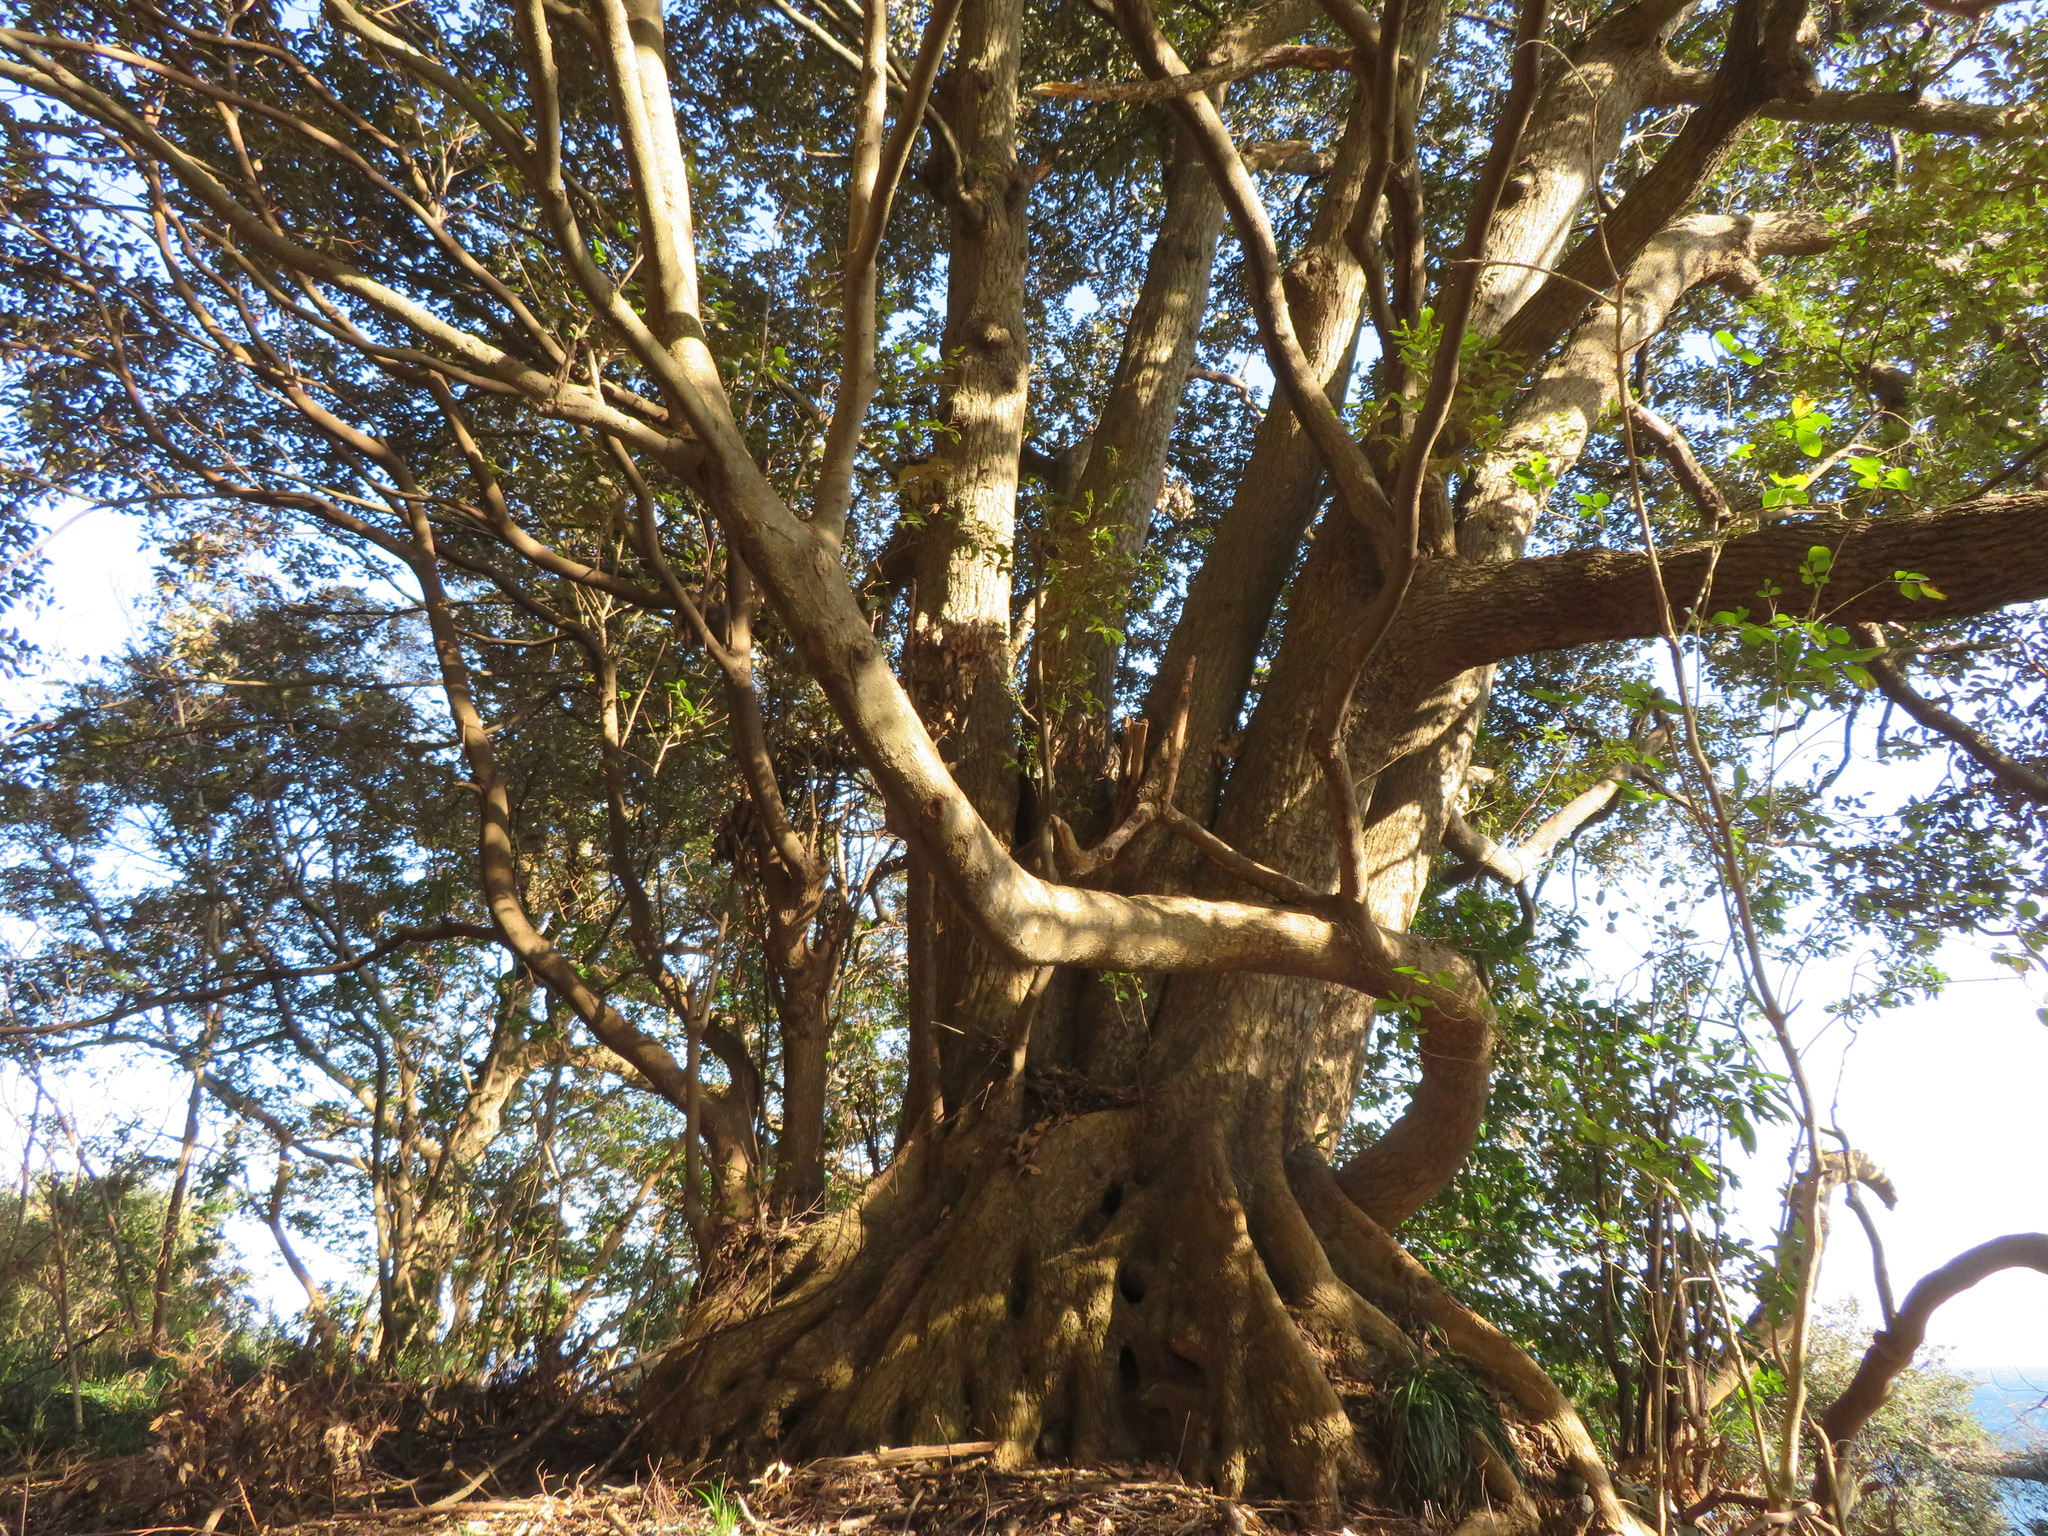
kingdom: Plantae
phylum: Tracheophyta
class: Magnoliopsida
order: Fagales
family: Fagaceae
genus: Castanopsis
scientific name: Castanopsis sieboldii
